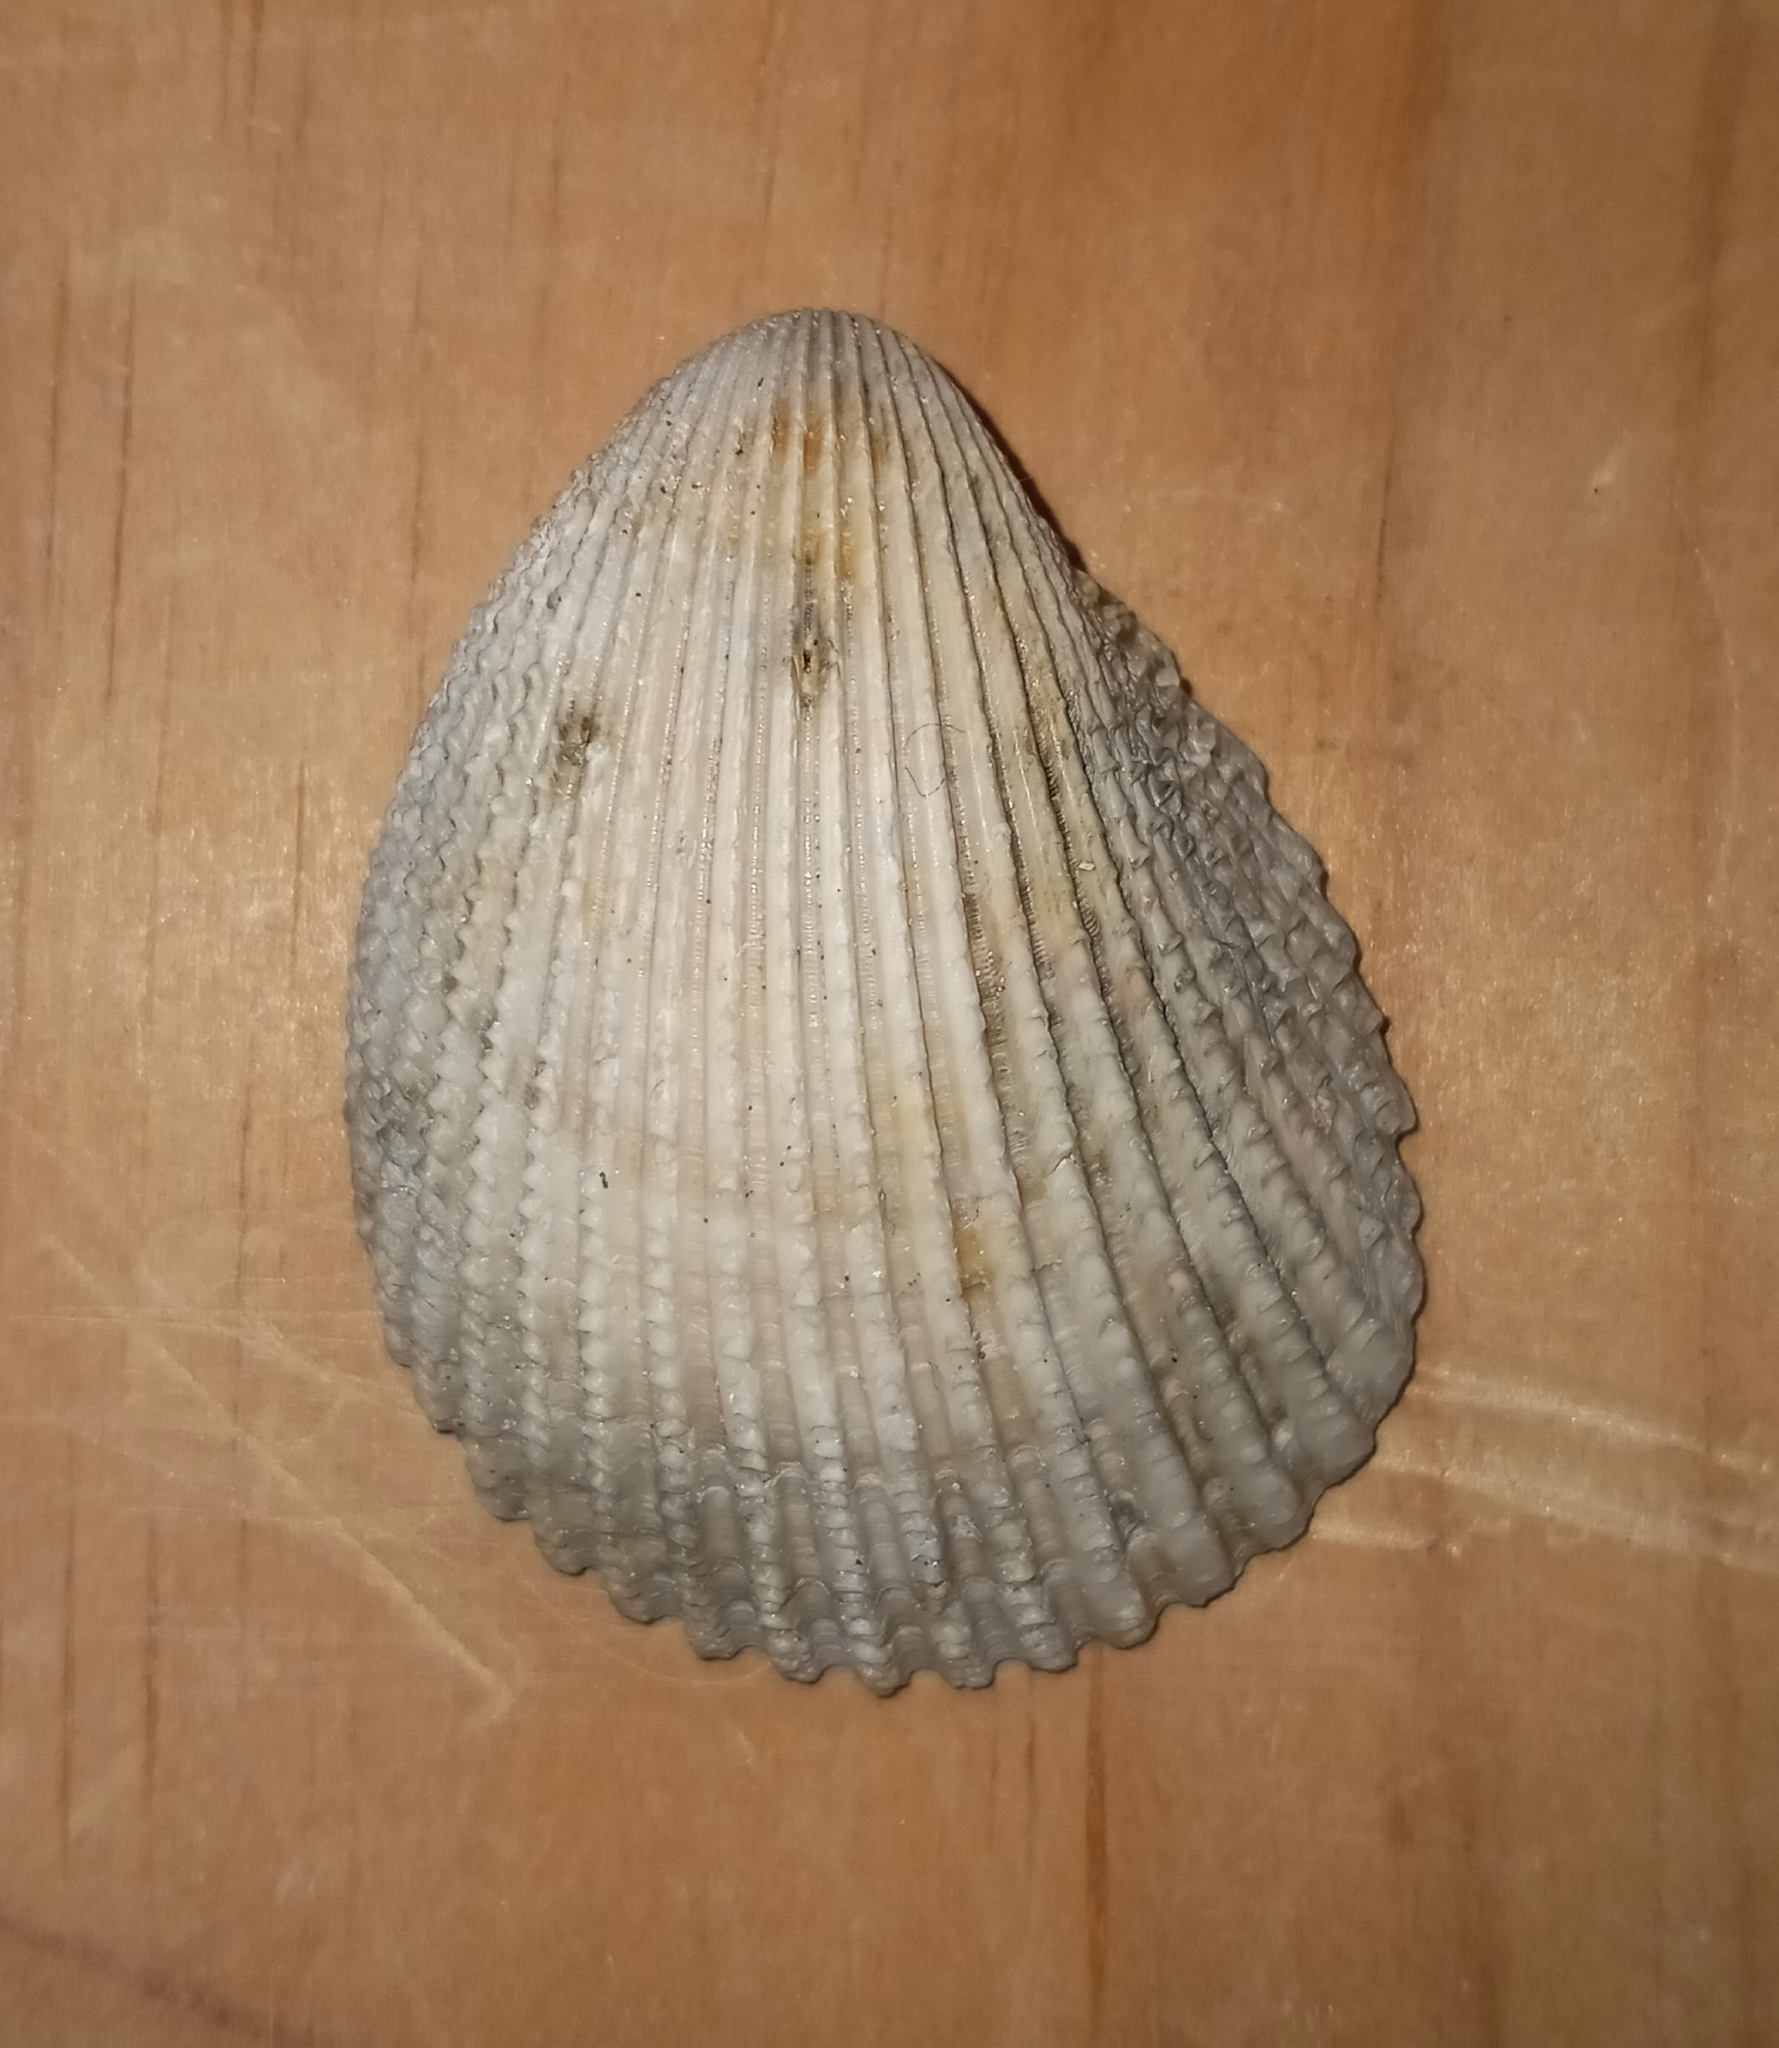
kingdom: Animalia
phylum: Mollusca
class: Bivalvia
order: Cardiida
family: Cardiidae
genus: Trachycardium
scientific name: Trachycardium egmontianum
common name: Florida pricklycockle
